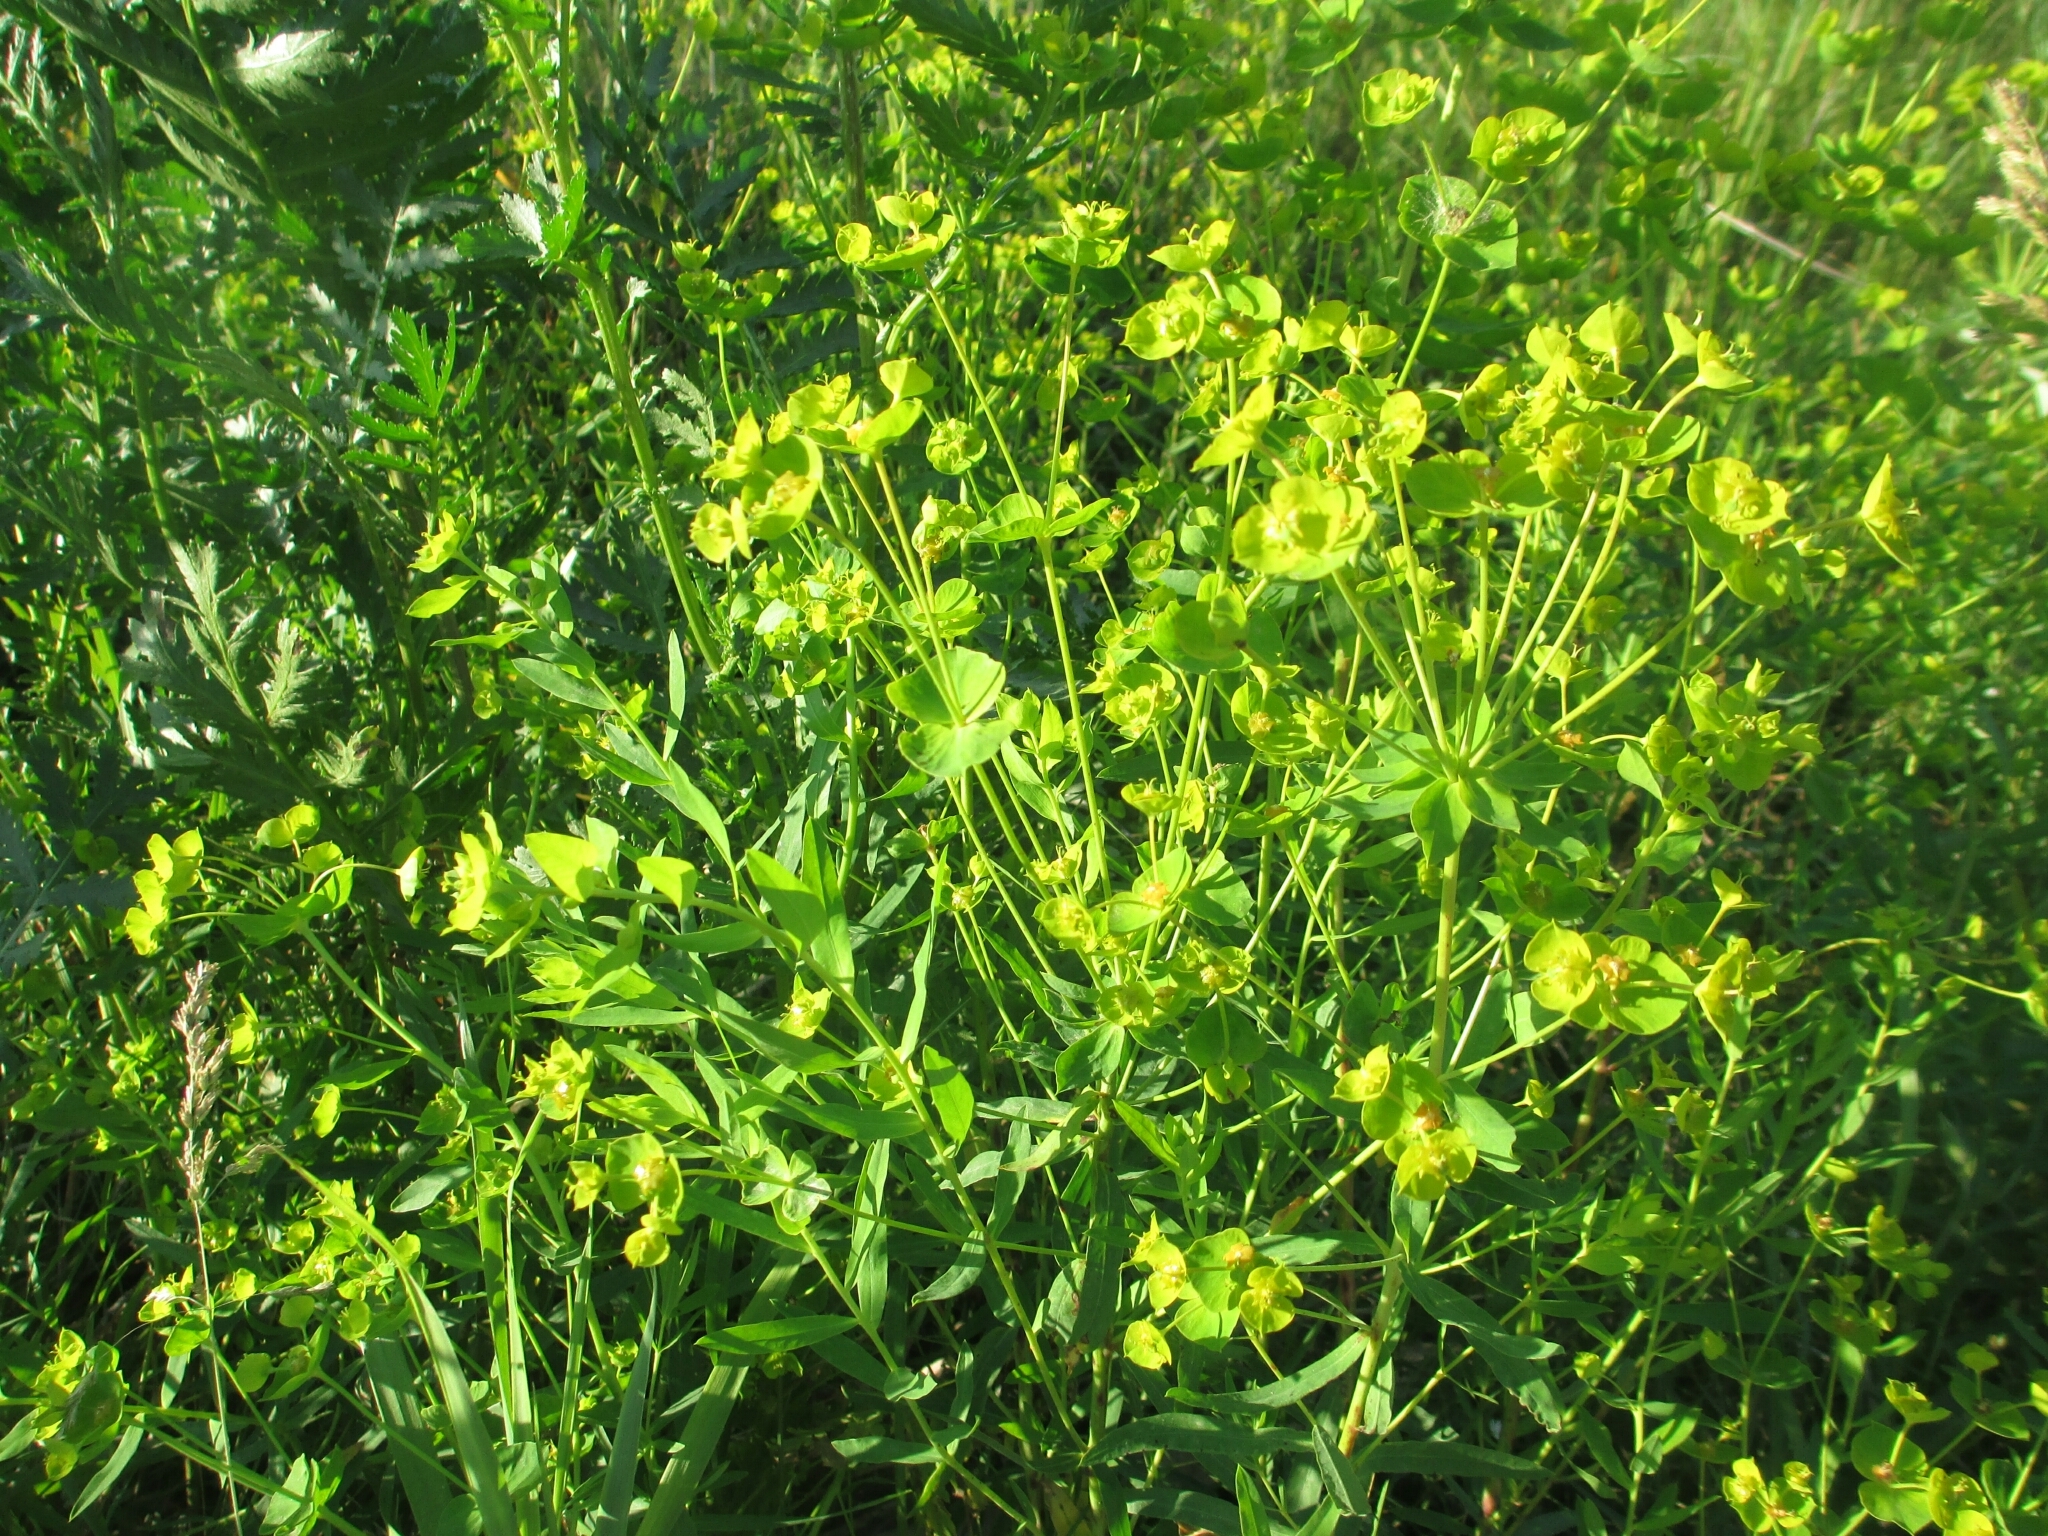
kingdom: Plantae
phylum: Tracheophyta
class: Magnoliopsida
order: Malpighiales
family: Euphorbiaceae
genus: Euphorbia
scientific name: Euphorbia virgata
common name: Leafy spurge
